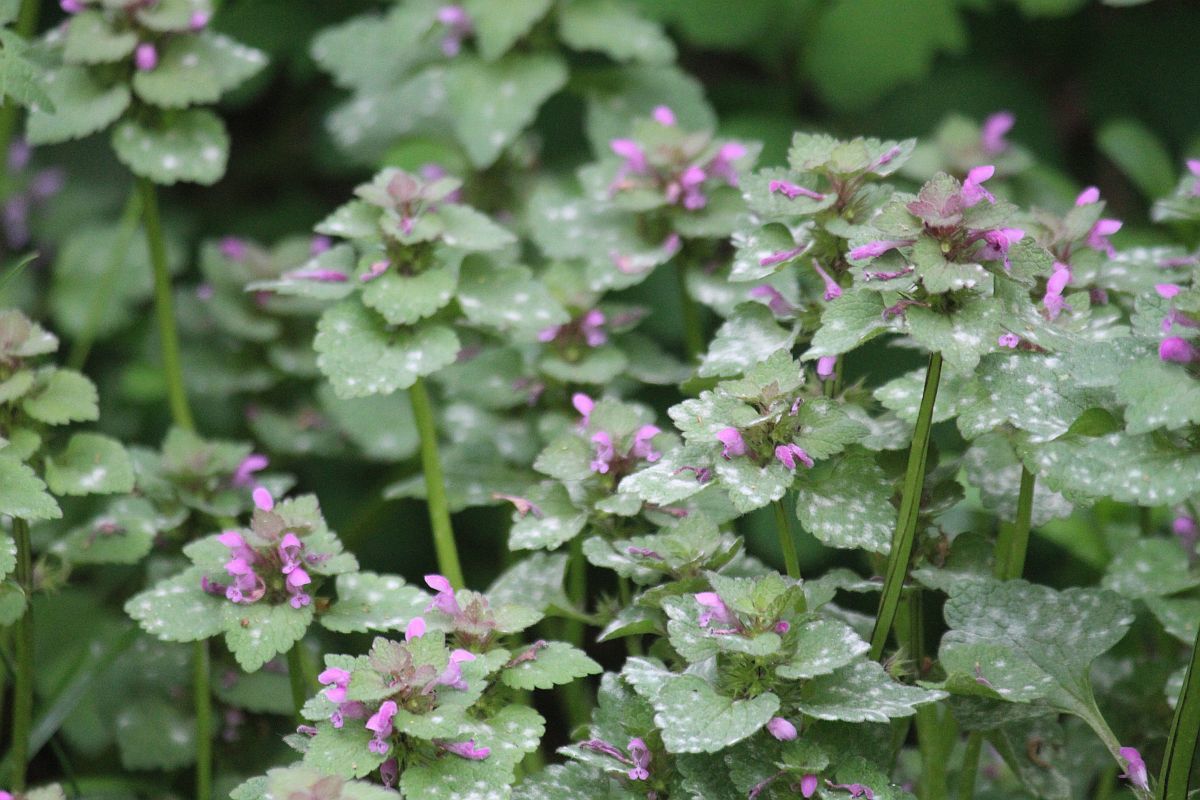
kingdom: Plantae
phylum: Tracheophyta
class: Magnoliopsida
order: Lamiales
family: Lamiaceae
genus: Lamium
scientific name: Lamium purpureum
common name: Red dead-nettle
